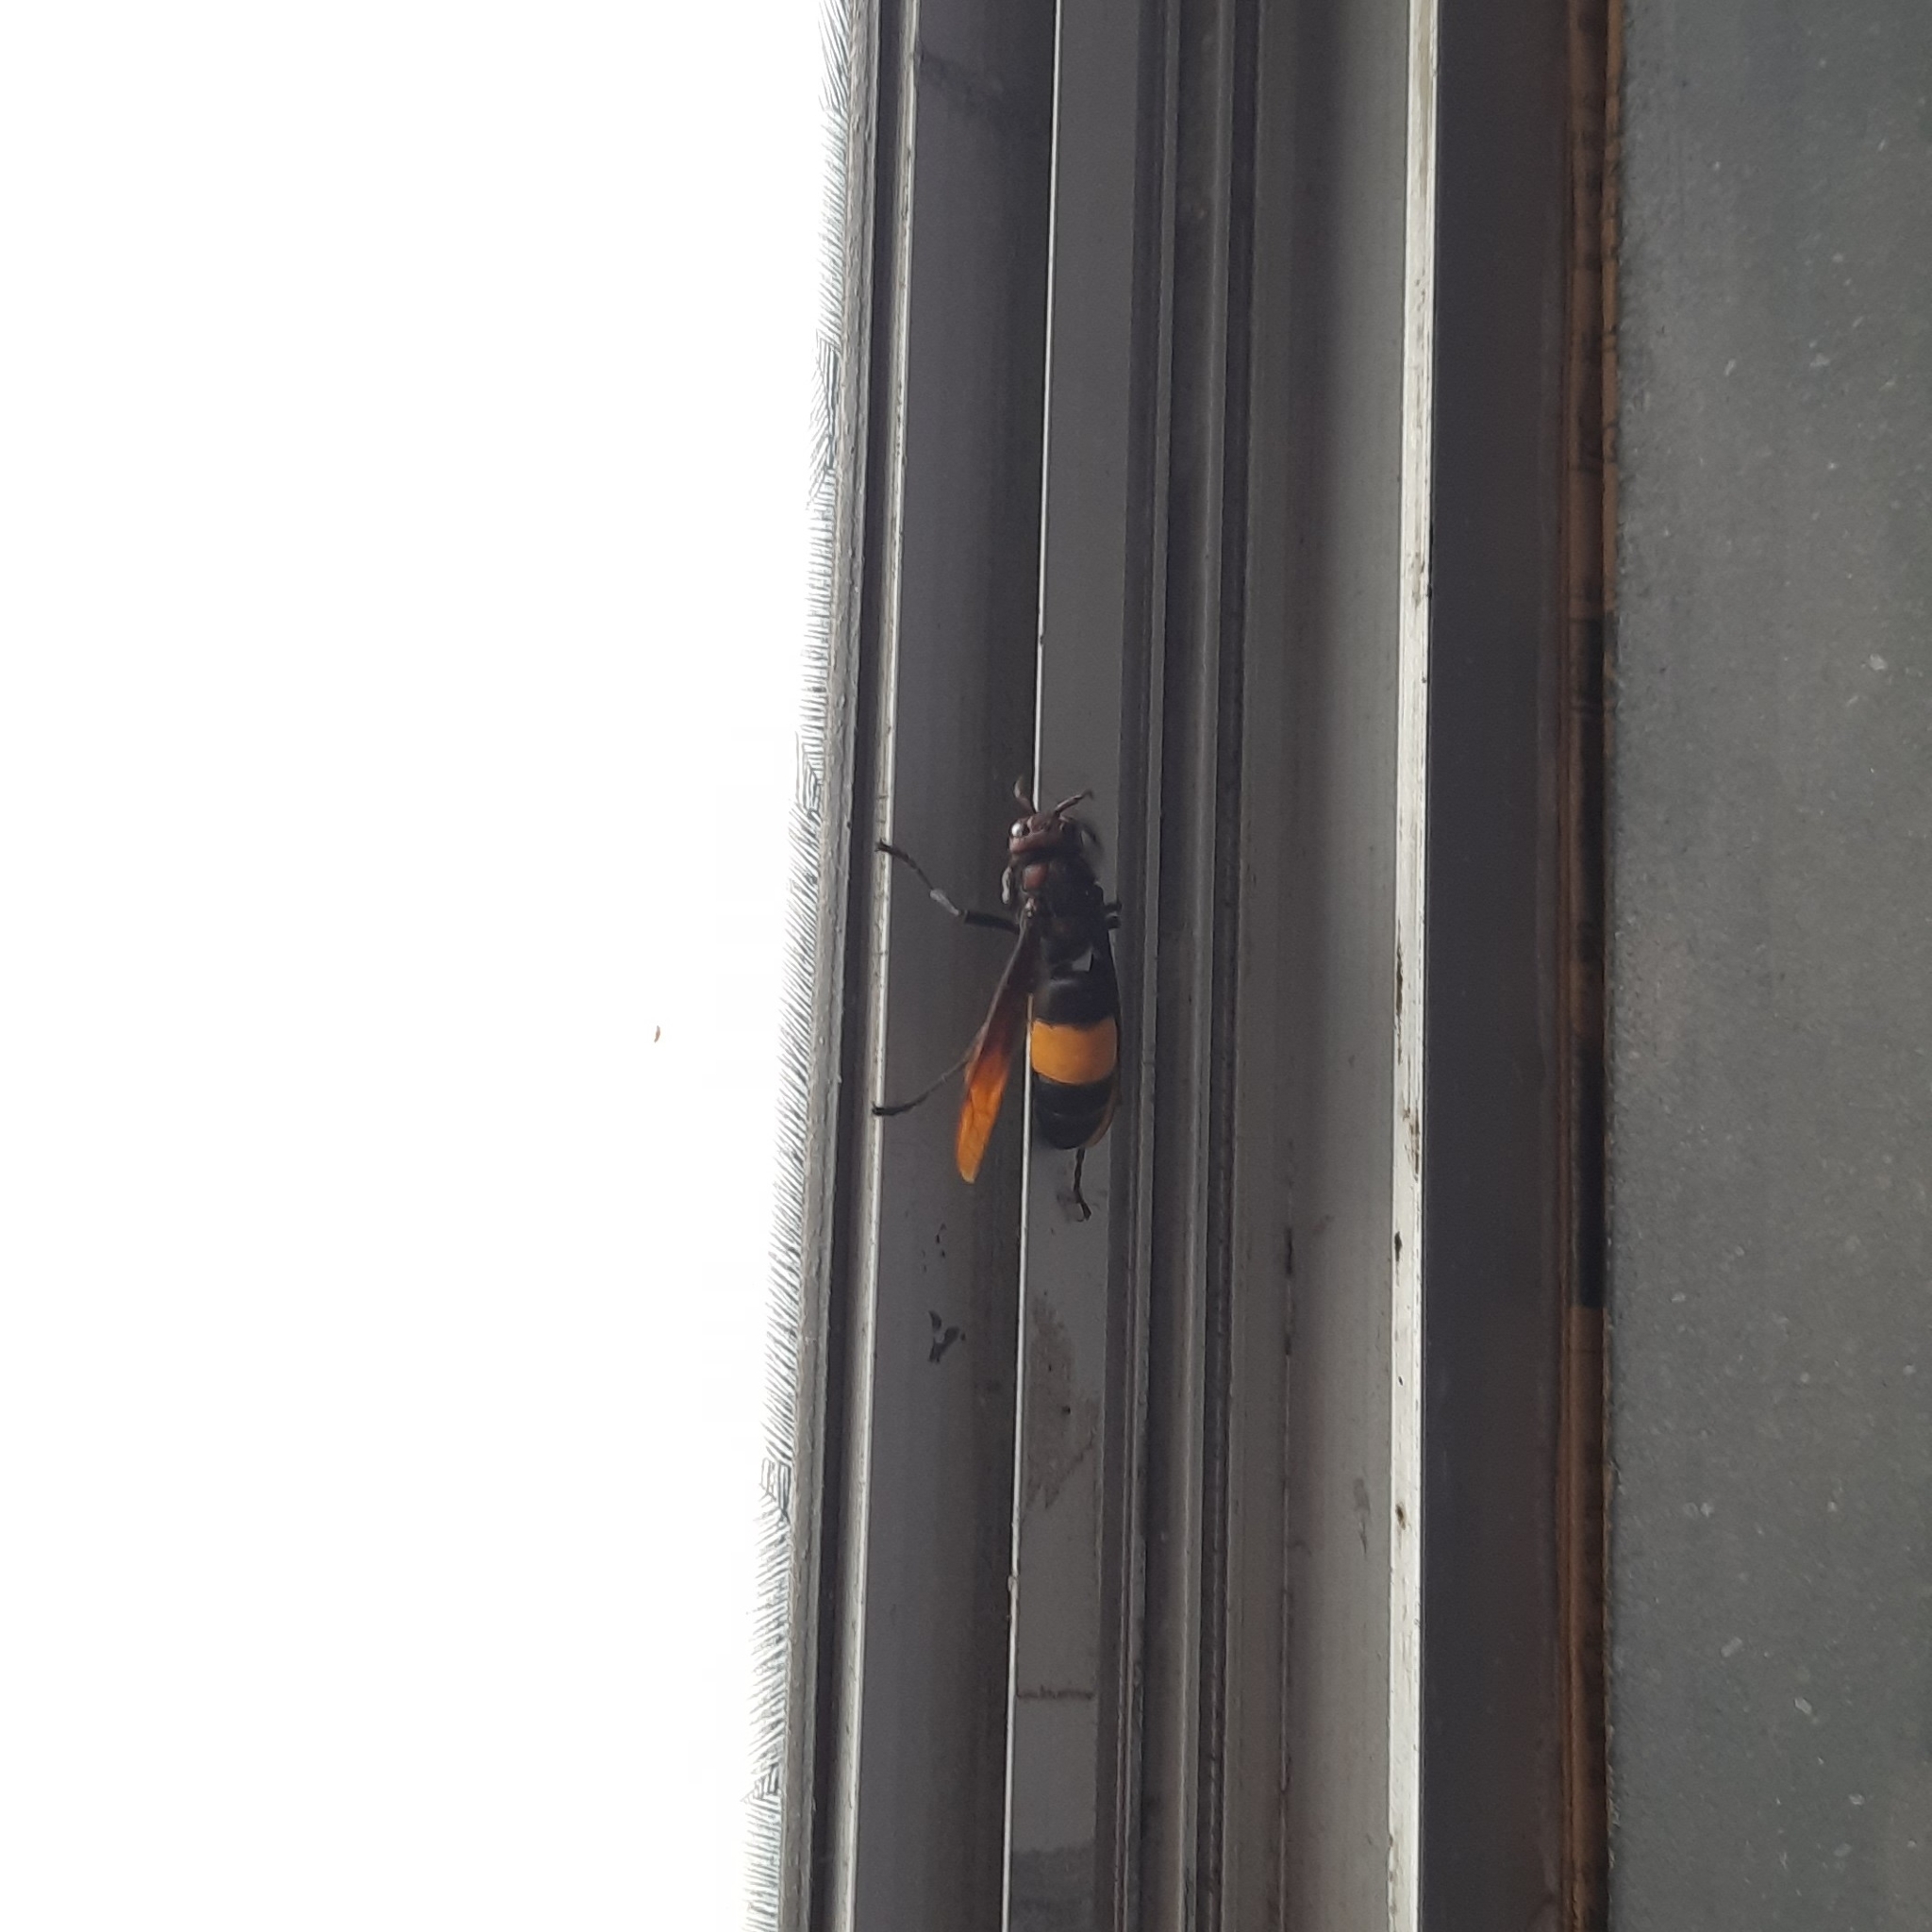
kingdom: Animalia
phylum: Arthropoda
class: Insecta
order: Hymenoptera
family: Vespidae
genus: Vespa
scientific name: Vespa tropica
